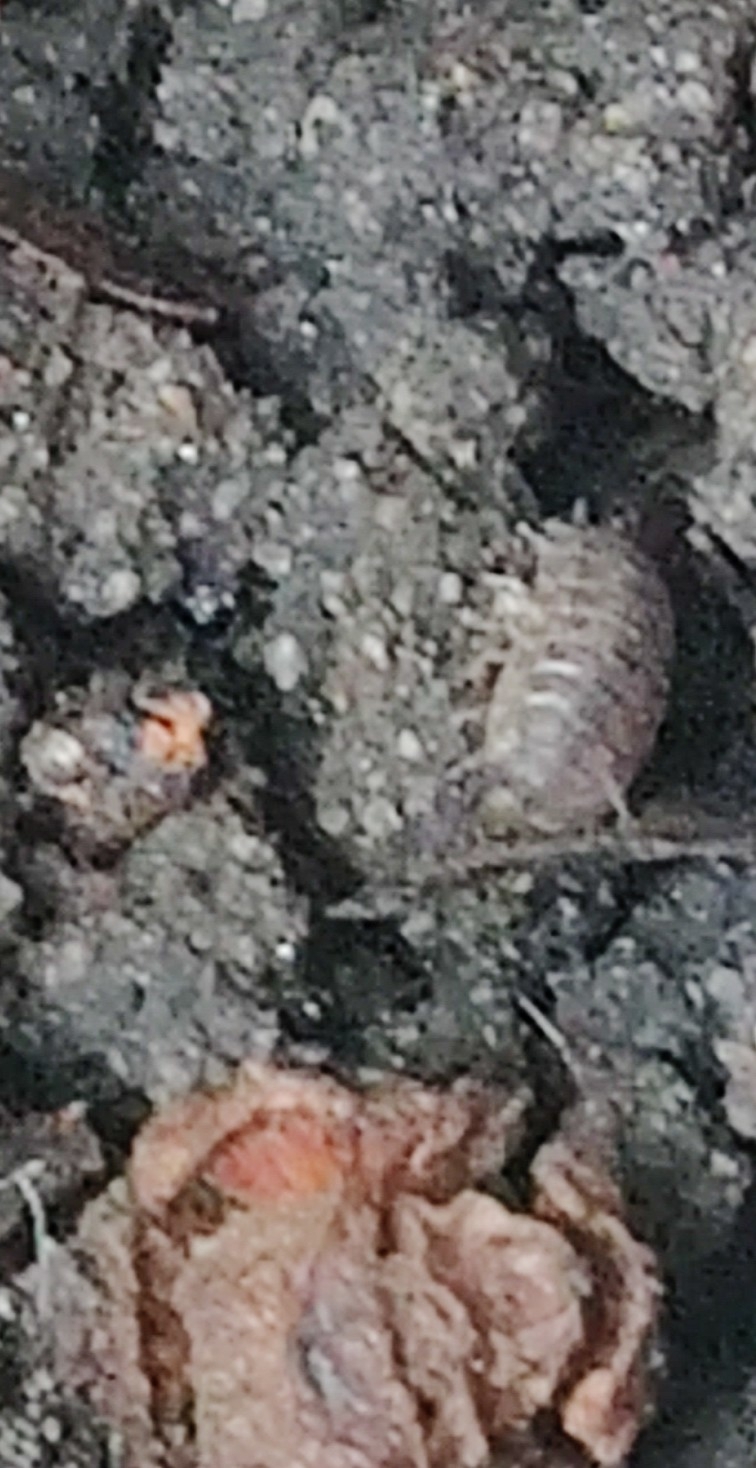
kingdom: Animalia
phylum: Arthropoda
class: Malacostraca
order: Isopoda
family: Porcellionidae
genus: Porcellio
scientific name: Porcellio scaber
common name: Common rough woodlouse
